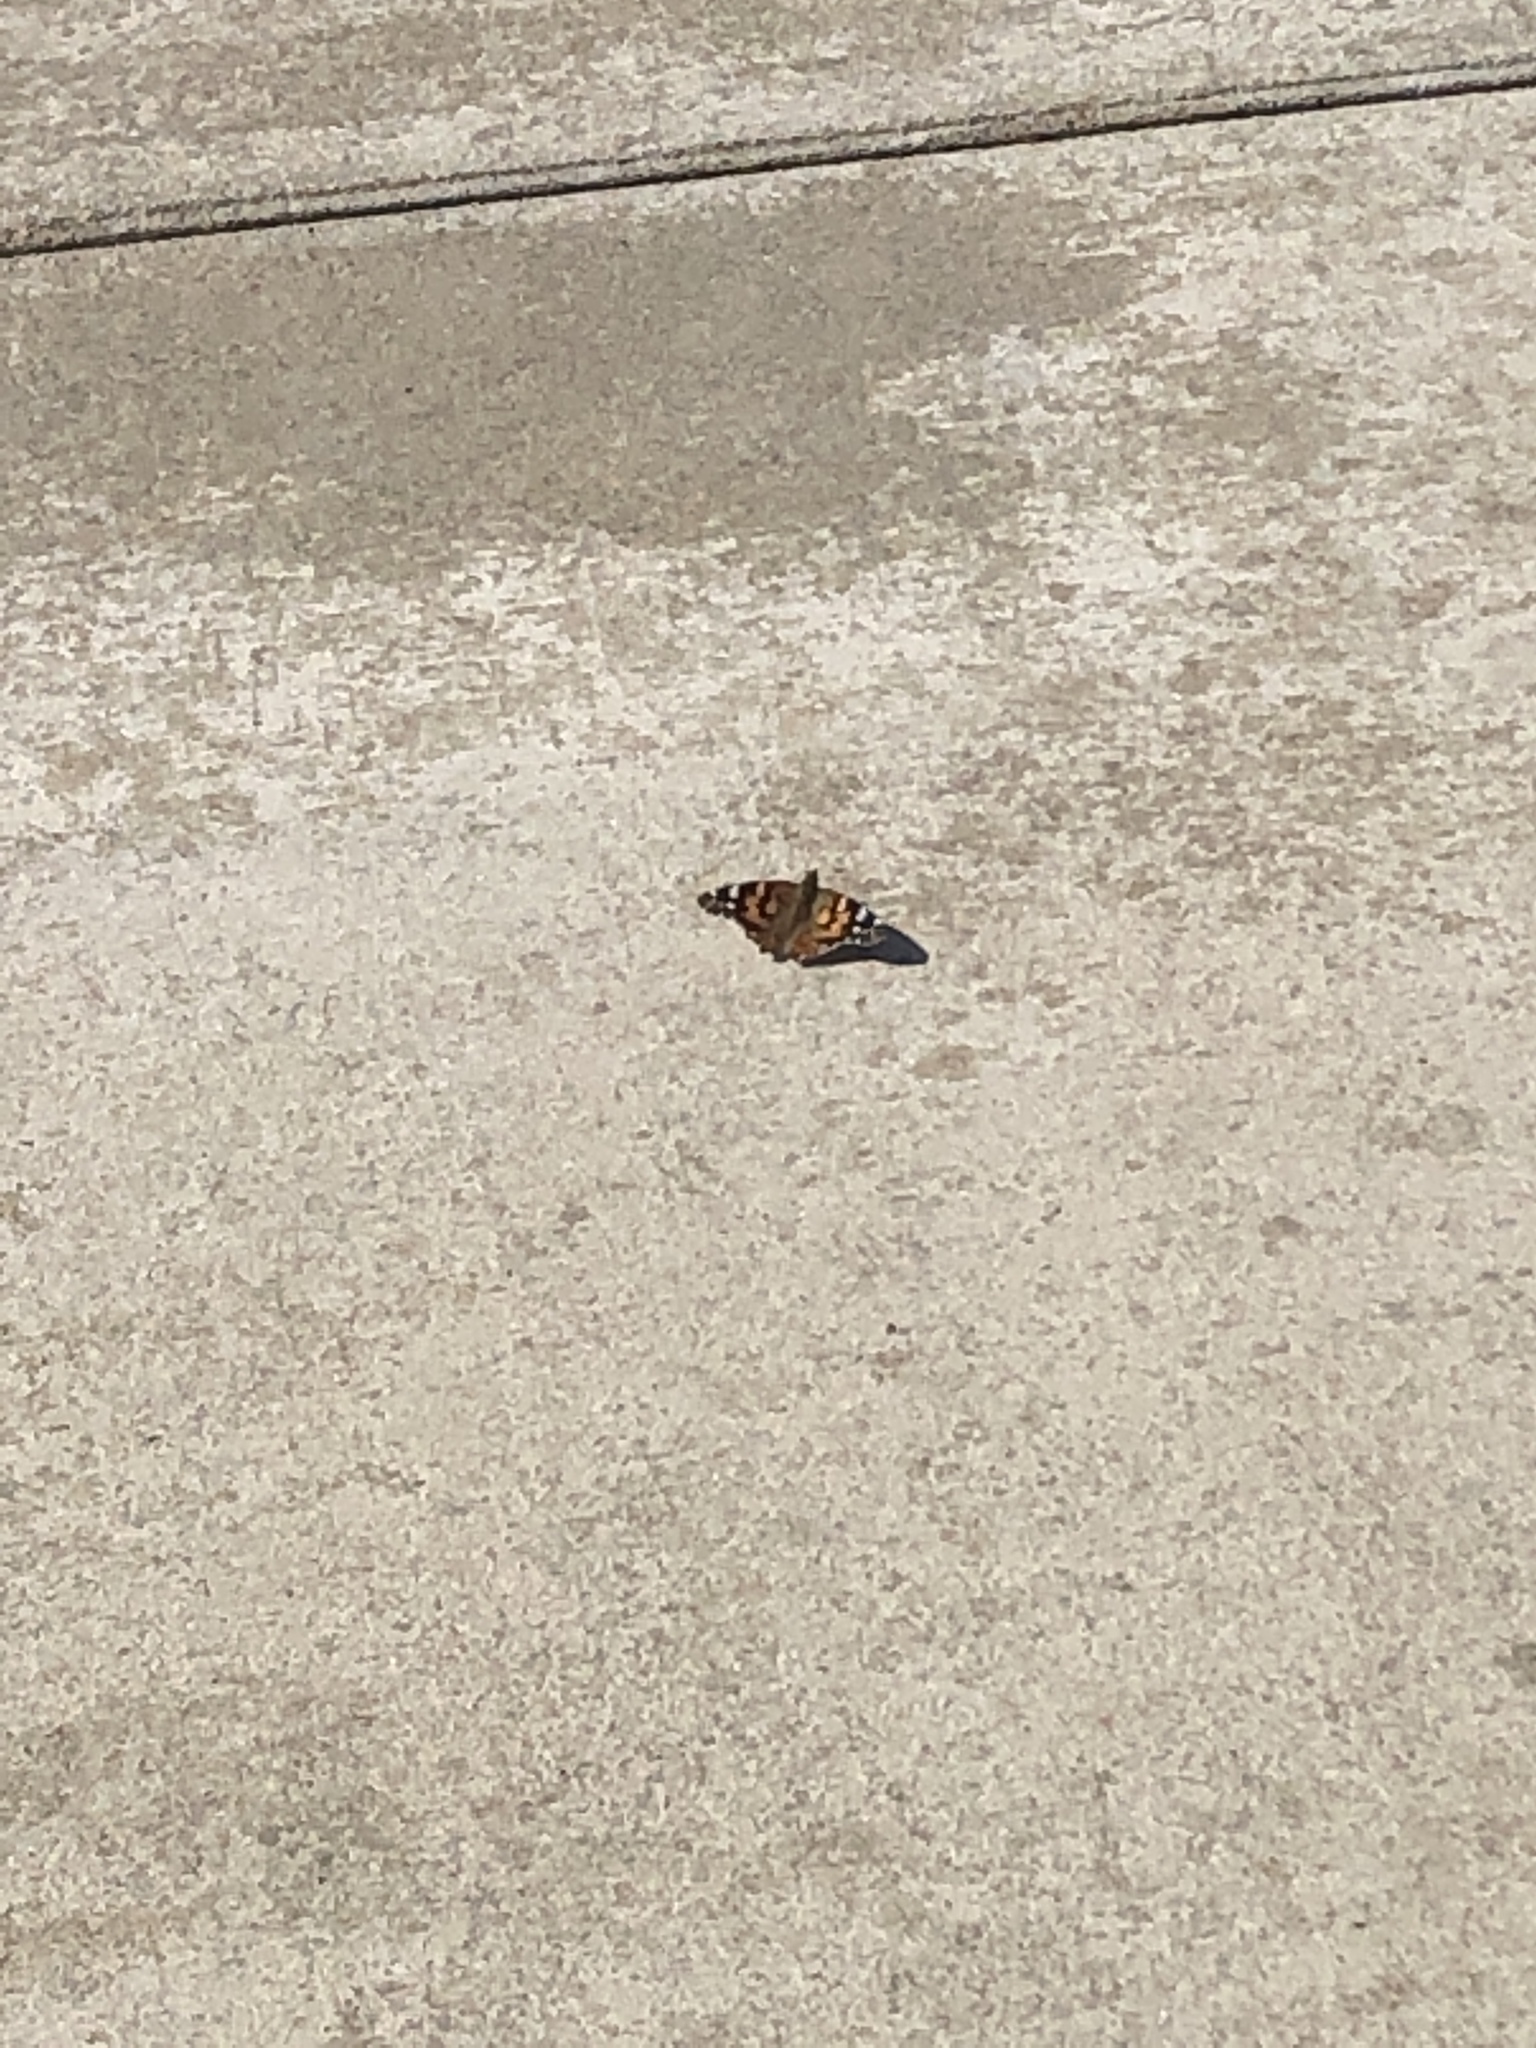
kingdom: Animalia
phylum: Arthropoda
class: Insecta
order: Lepidoptera
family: Nymphalidae
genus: Vanessa
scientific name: Vanessa cardui
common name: Painted lady
